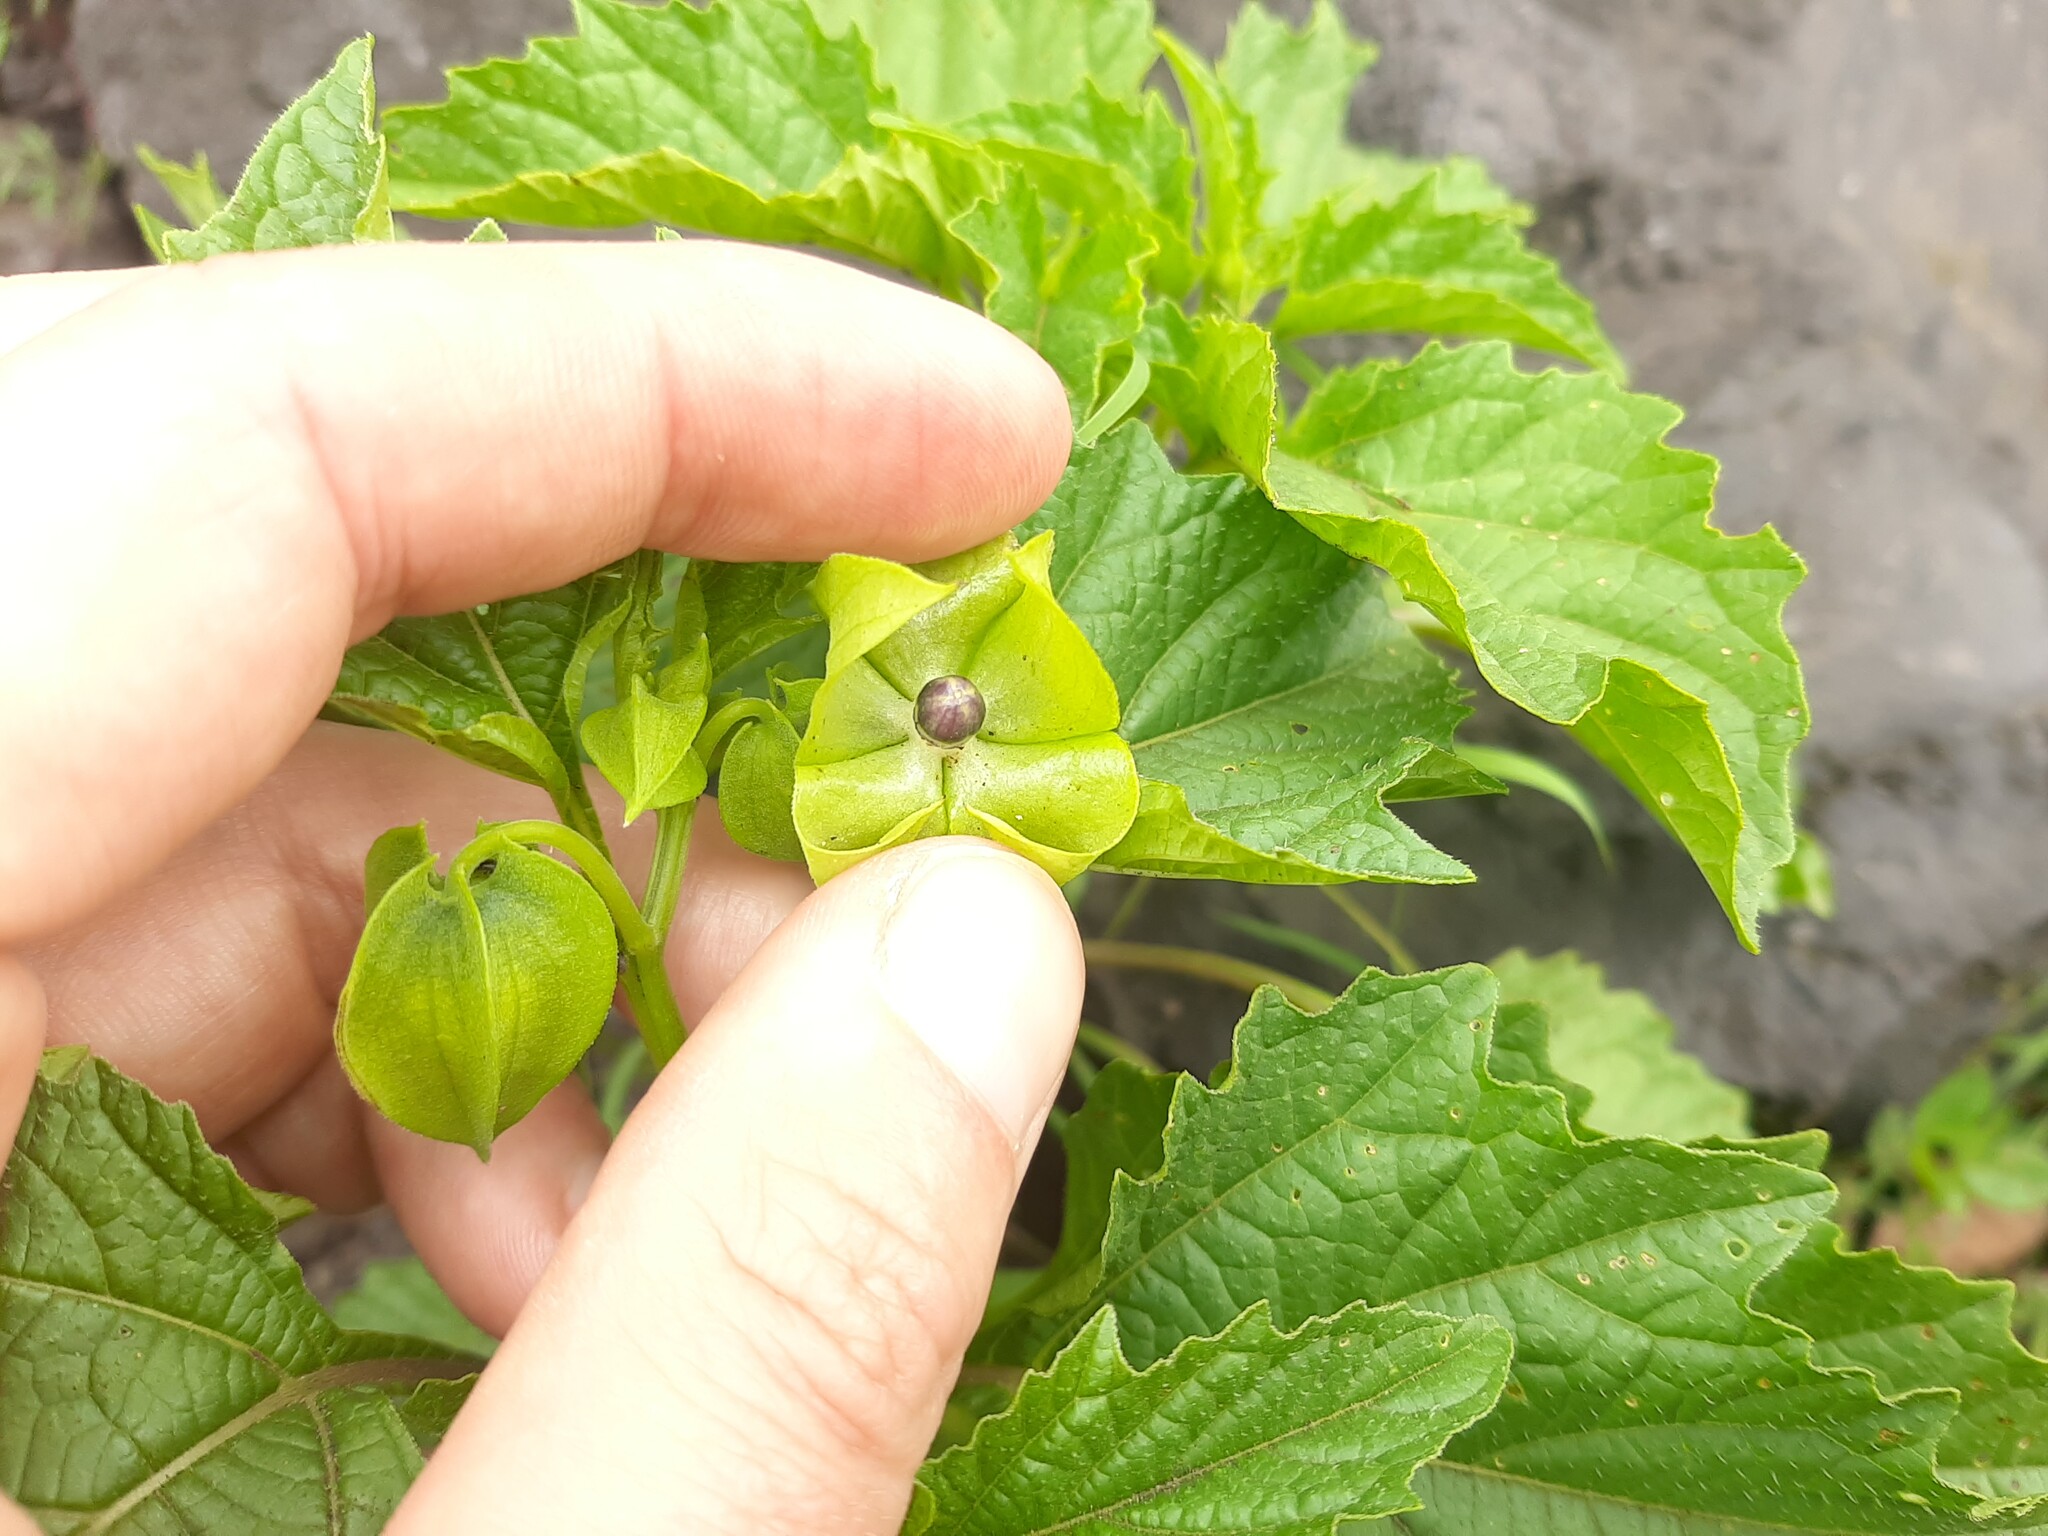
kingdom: Plantae
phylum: Tracheophyta
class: Magnoliopsida
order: Solanales
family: Solanaceae
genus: Nicandra
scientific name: Nicandra physalodes
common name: Apple-of-peru
